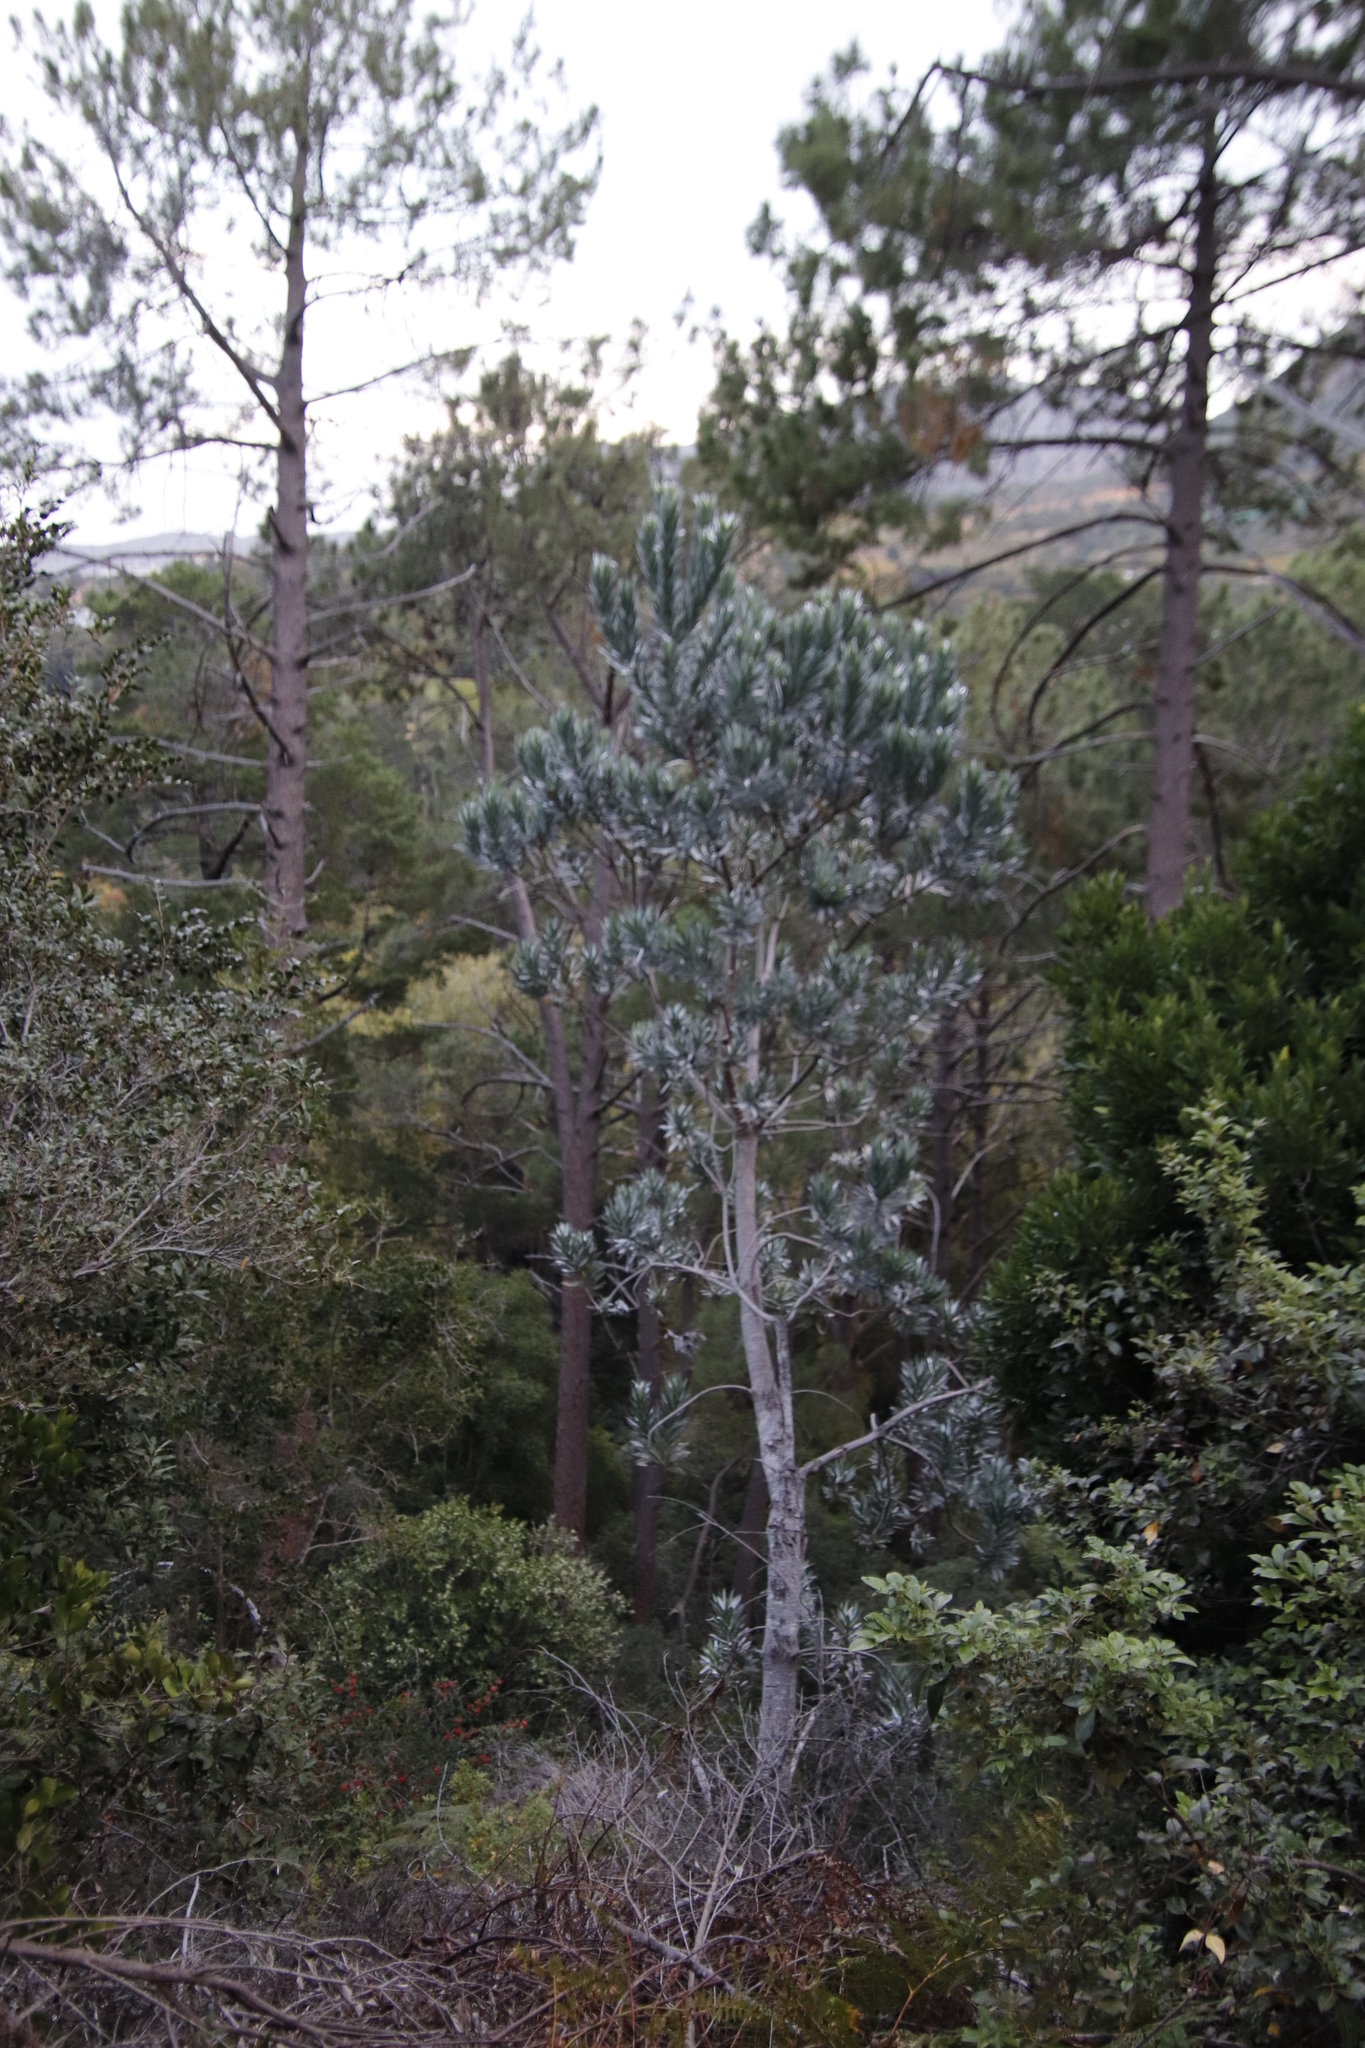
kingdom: Plantae
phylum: Tracheophyta
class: Magnoliopsida
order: Proteales
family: Proteaceae
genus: Leucadendron
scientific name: Leucadendron argenteum
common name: Cape silver tree
